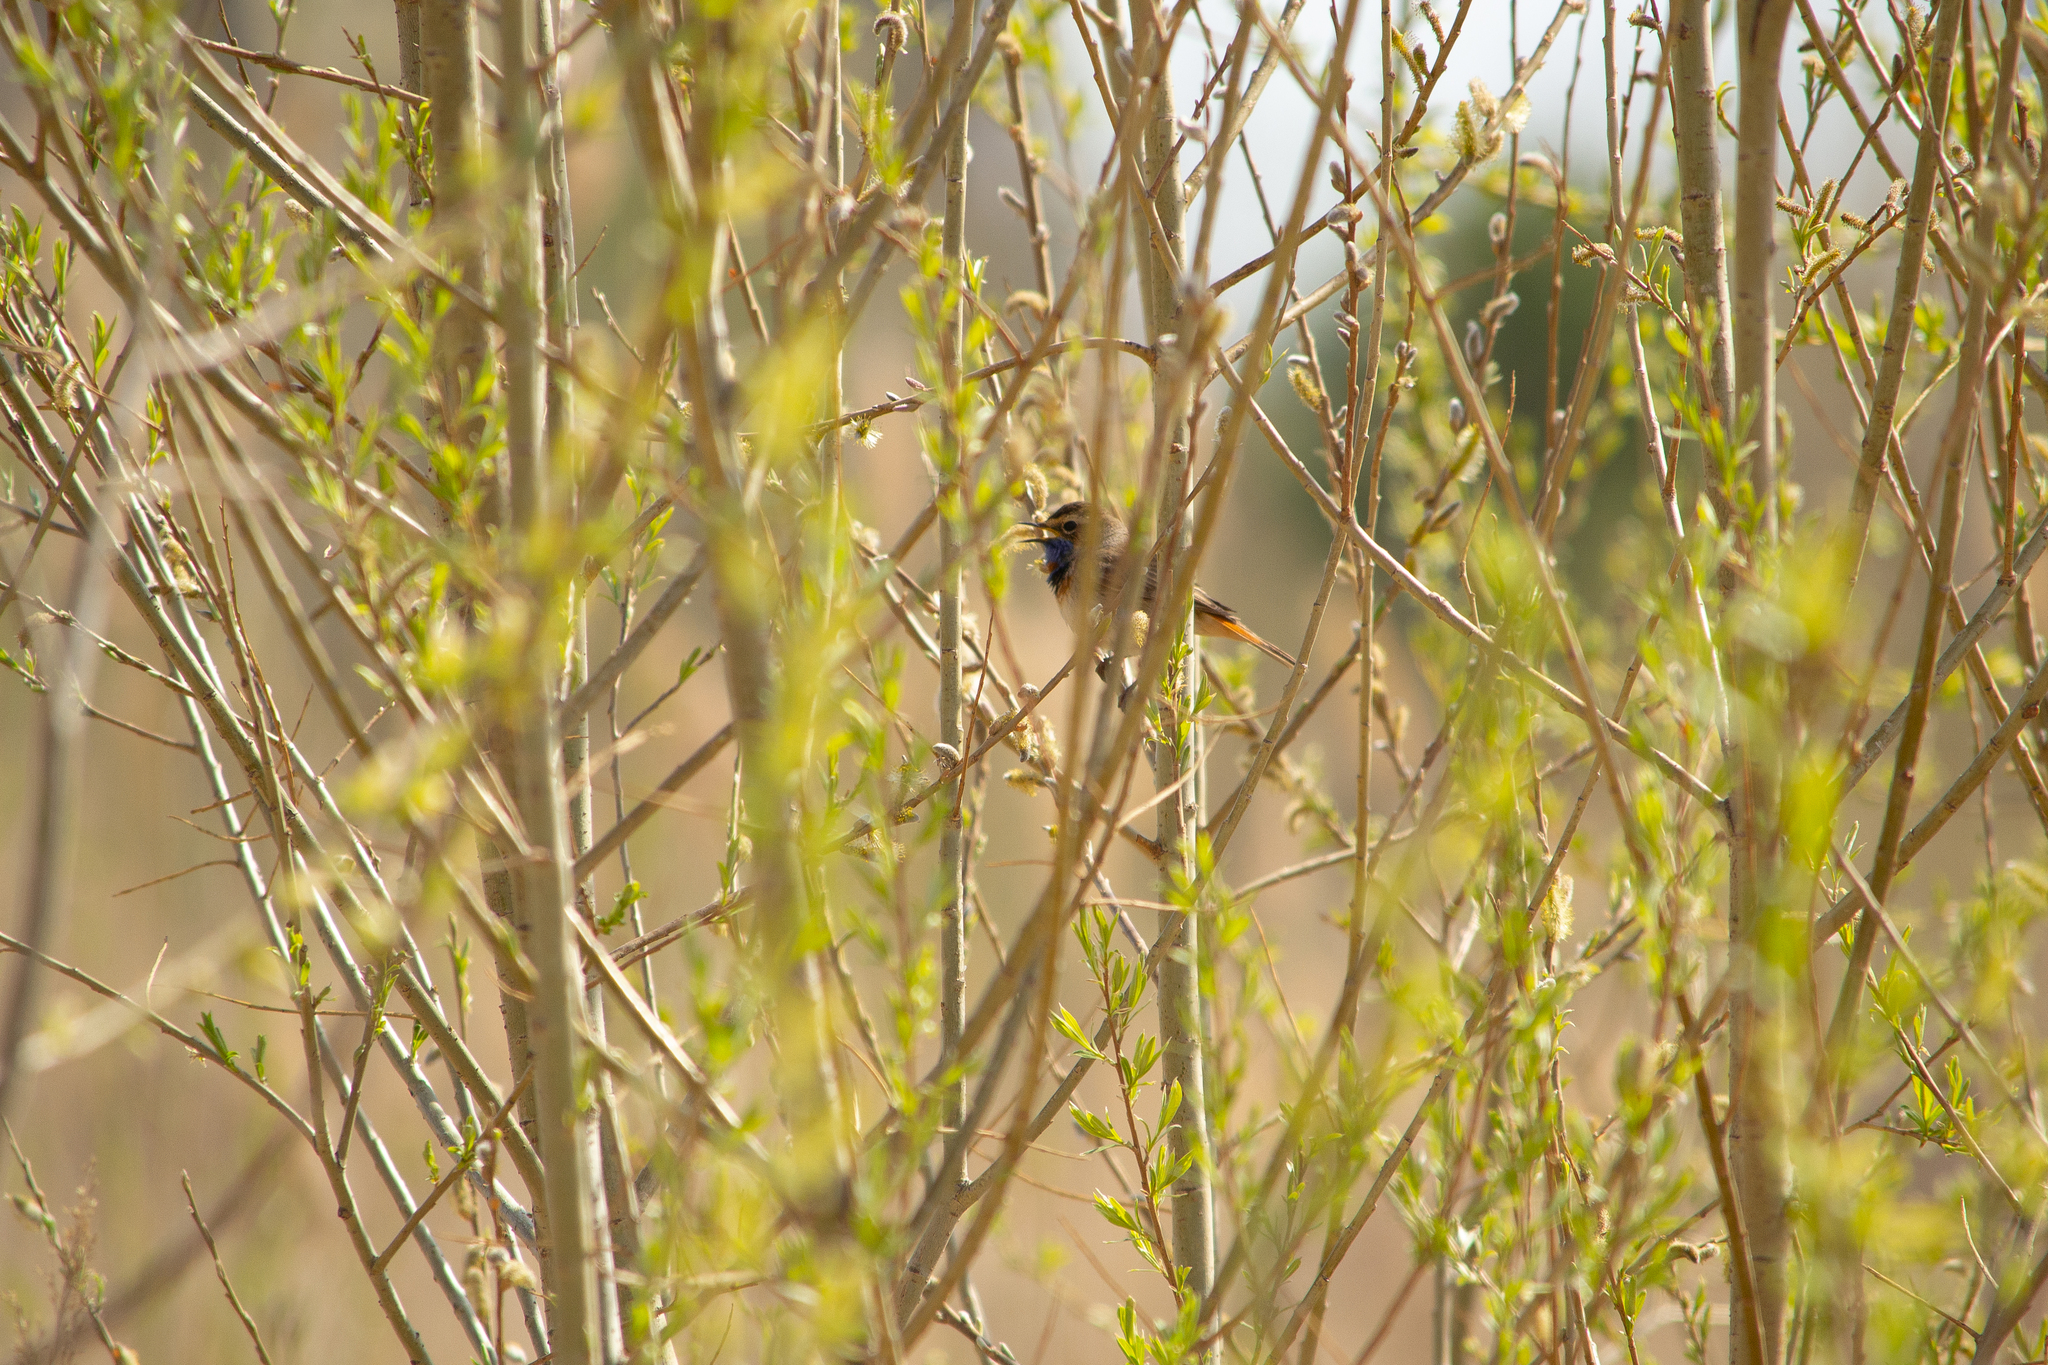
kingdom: Animalia
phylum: Chordata
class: Aves
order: Passeriformes
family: Muscicapidae
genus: Luscinia
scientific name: Luscinia svecica
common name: Bluethroat
